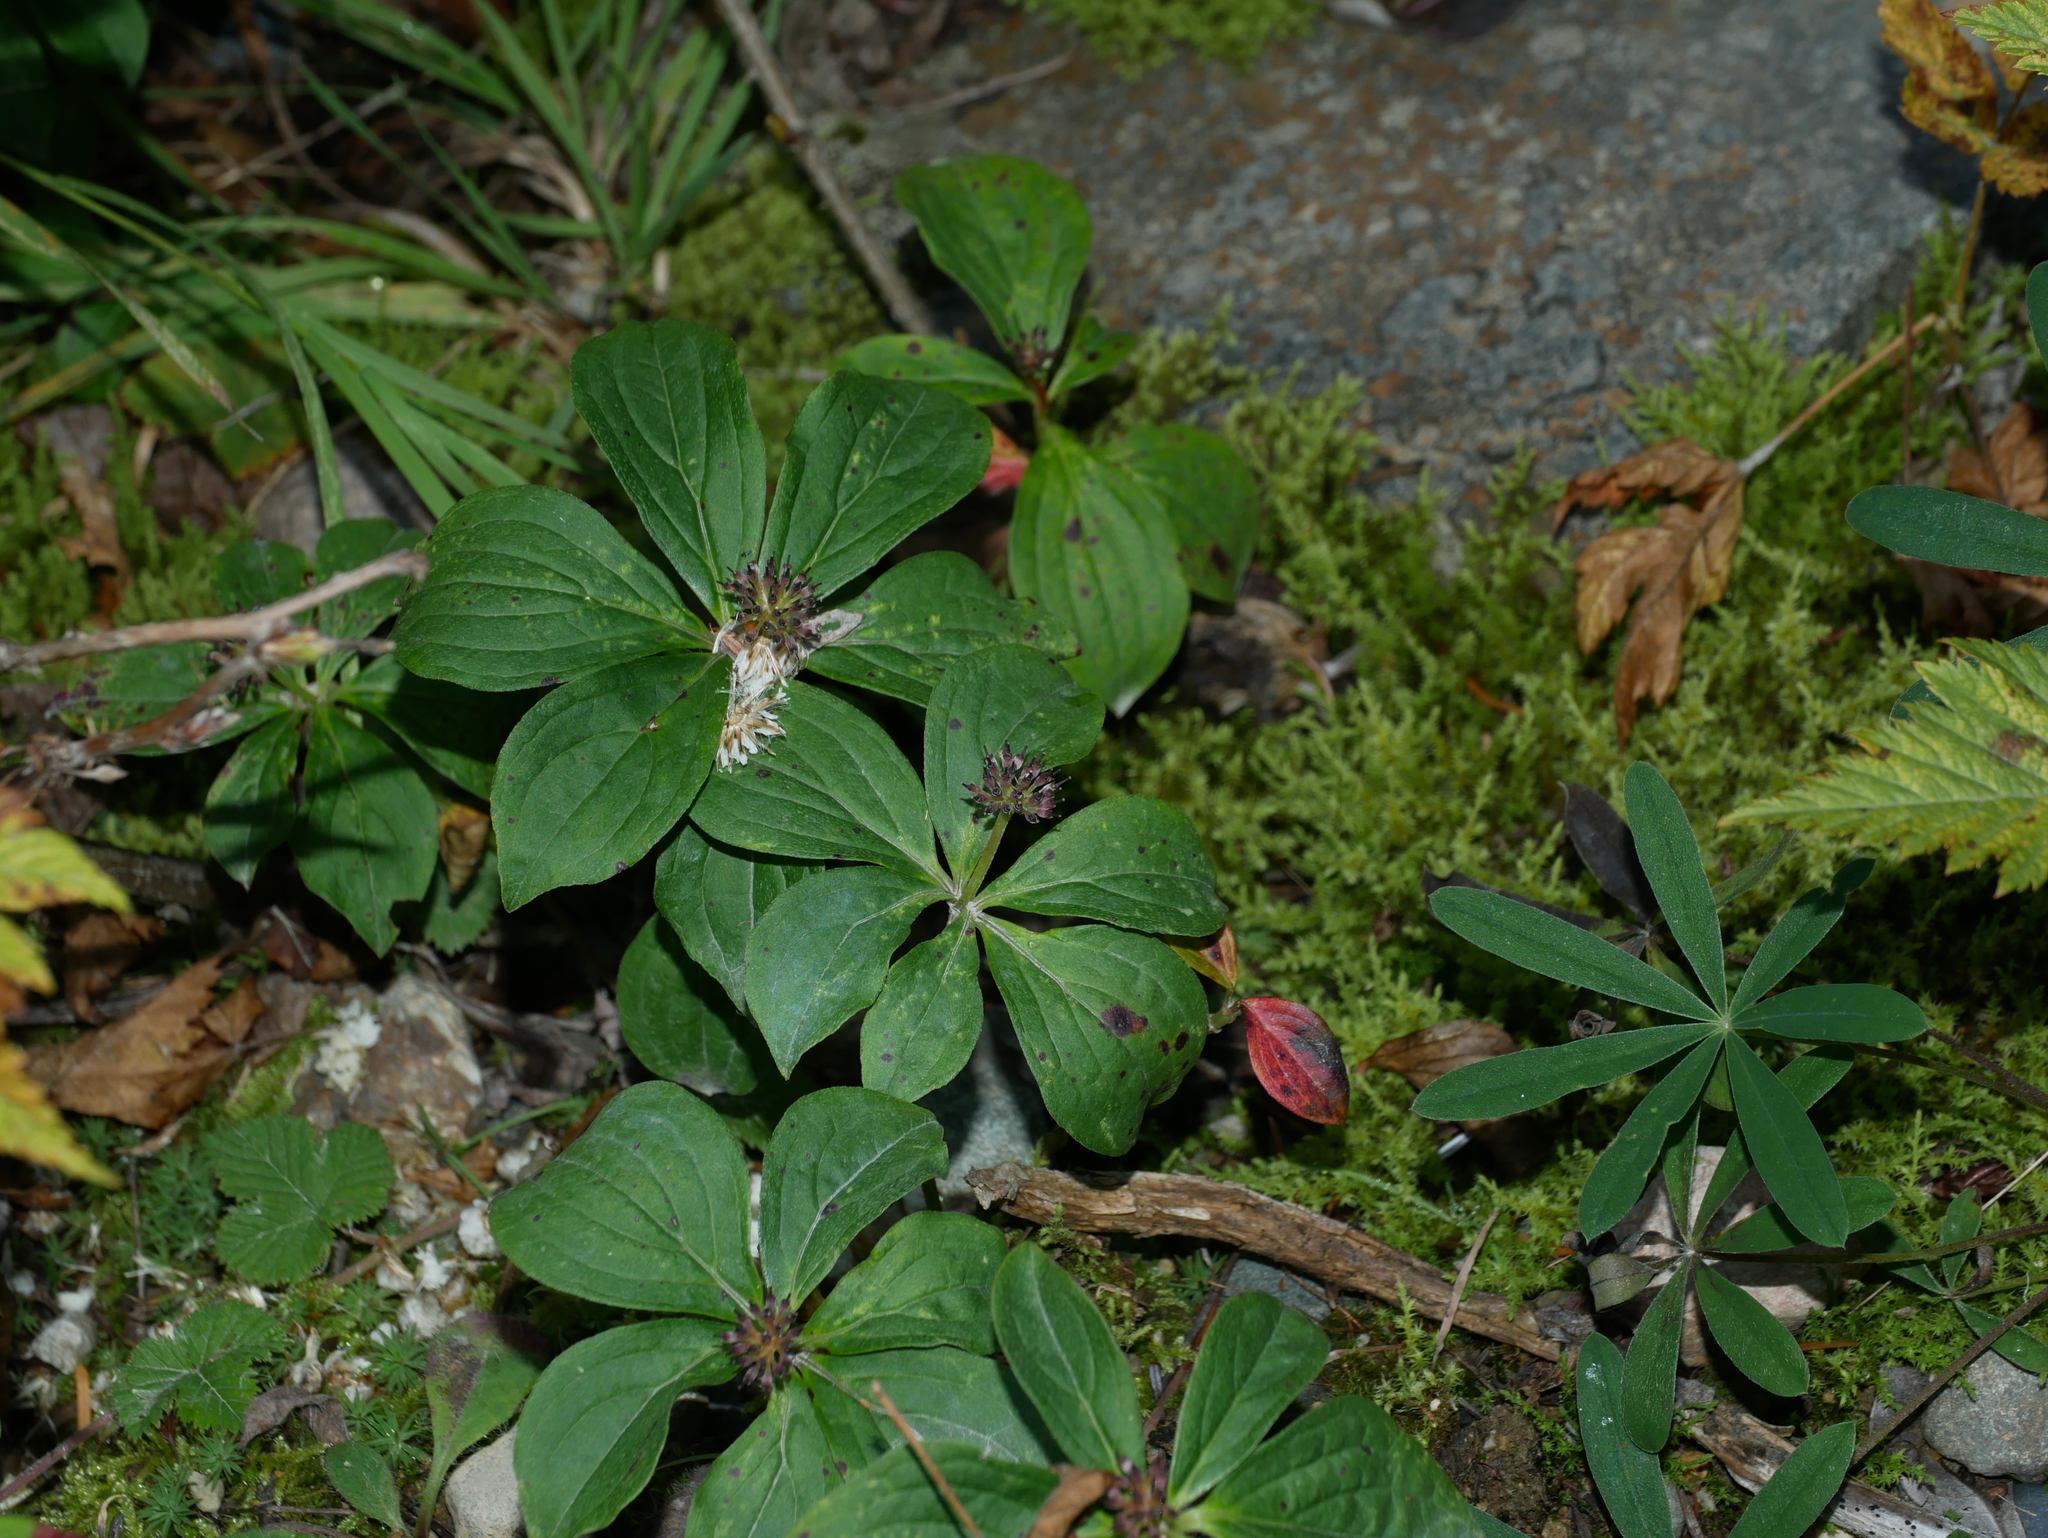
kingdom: Plantae
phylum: Tracheophyta
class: Magnoliopsida
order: Cornales
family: Cornaceae
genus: Cornus
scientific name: Cornus unalaschkensis
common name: Alaska bunchberry
